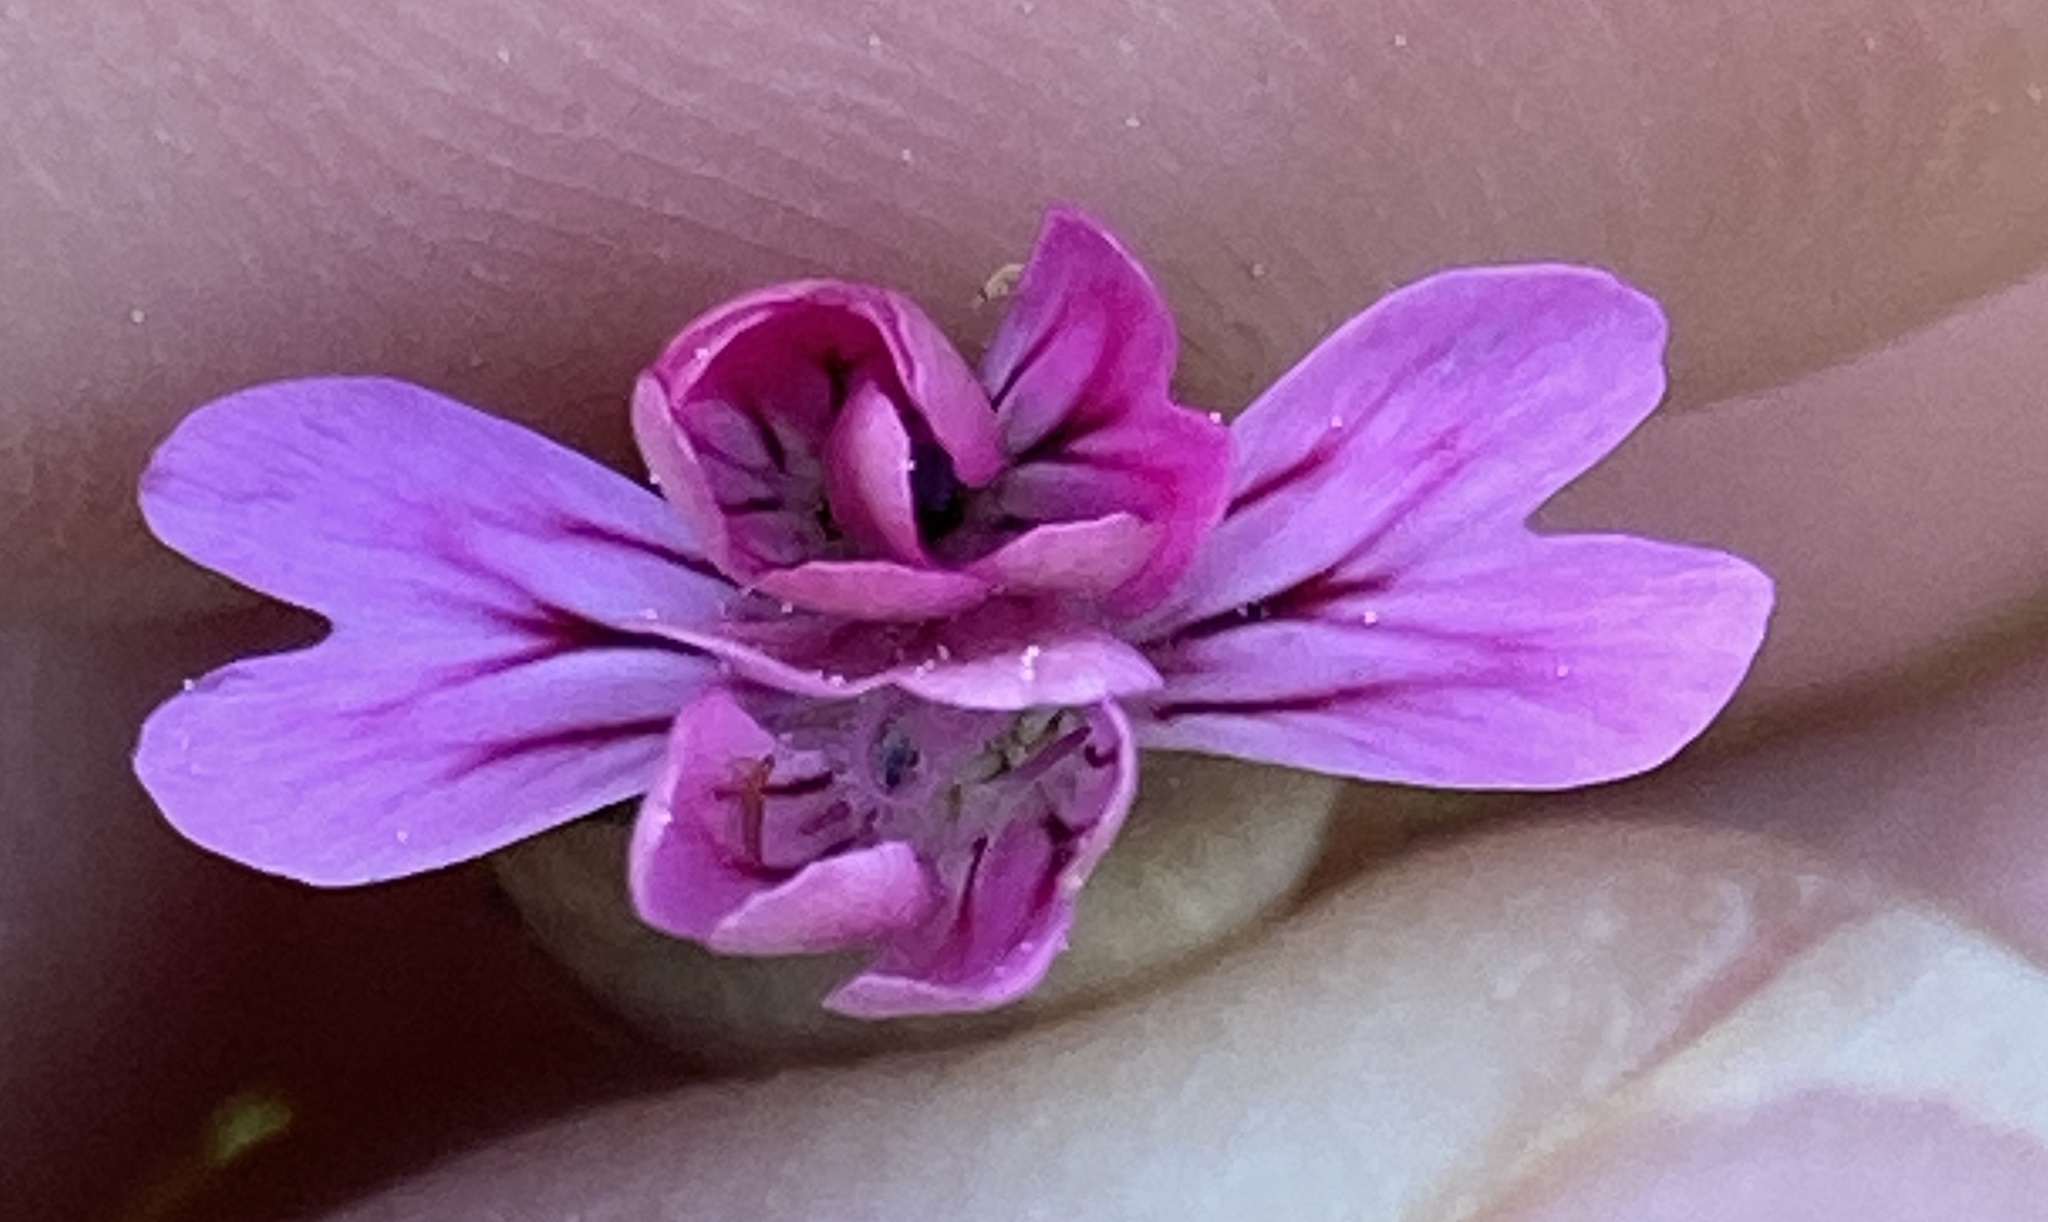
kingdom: Plantae
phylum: Tracheophyta
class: Magnoliopsida
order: Caryophyllales
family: Caryophyllaceae
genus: Petrorhagia
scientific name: Petrorhagia dubia
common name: Hairypink
